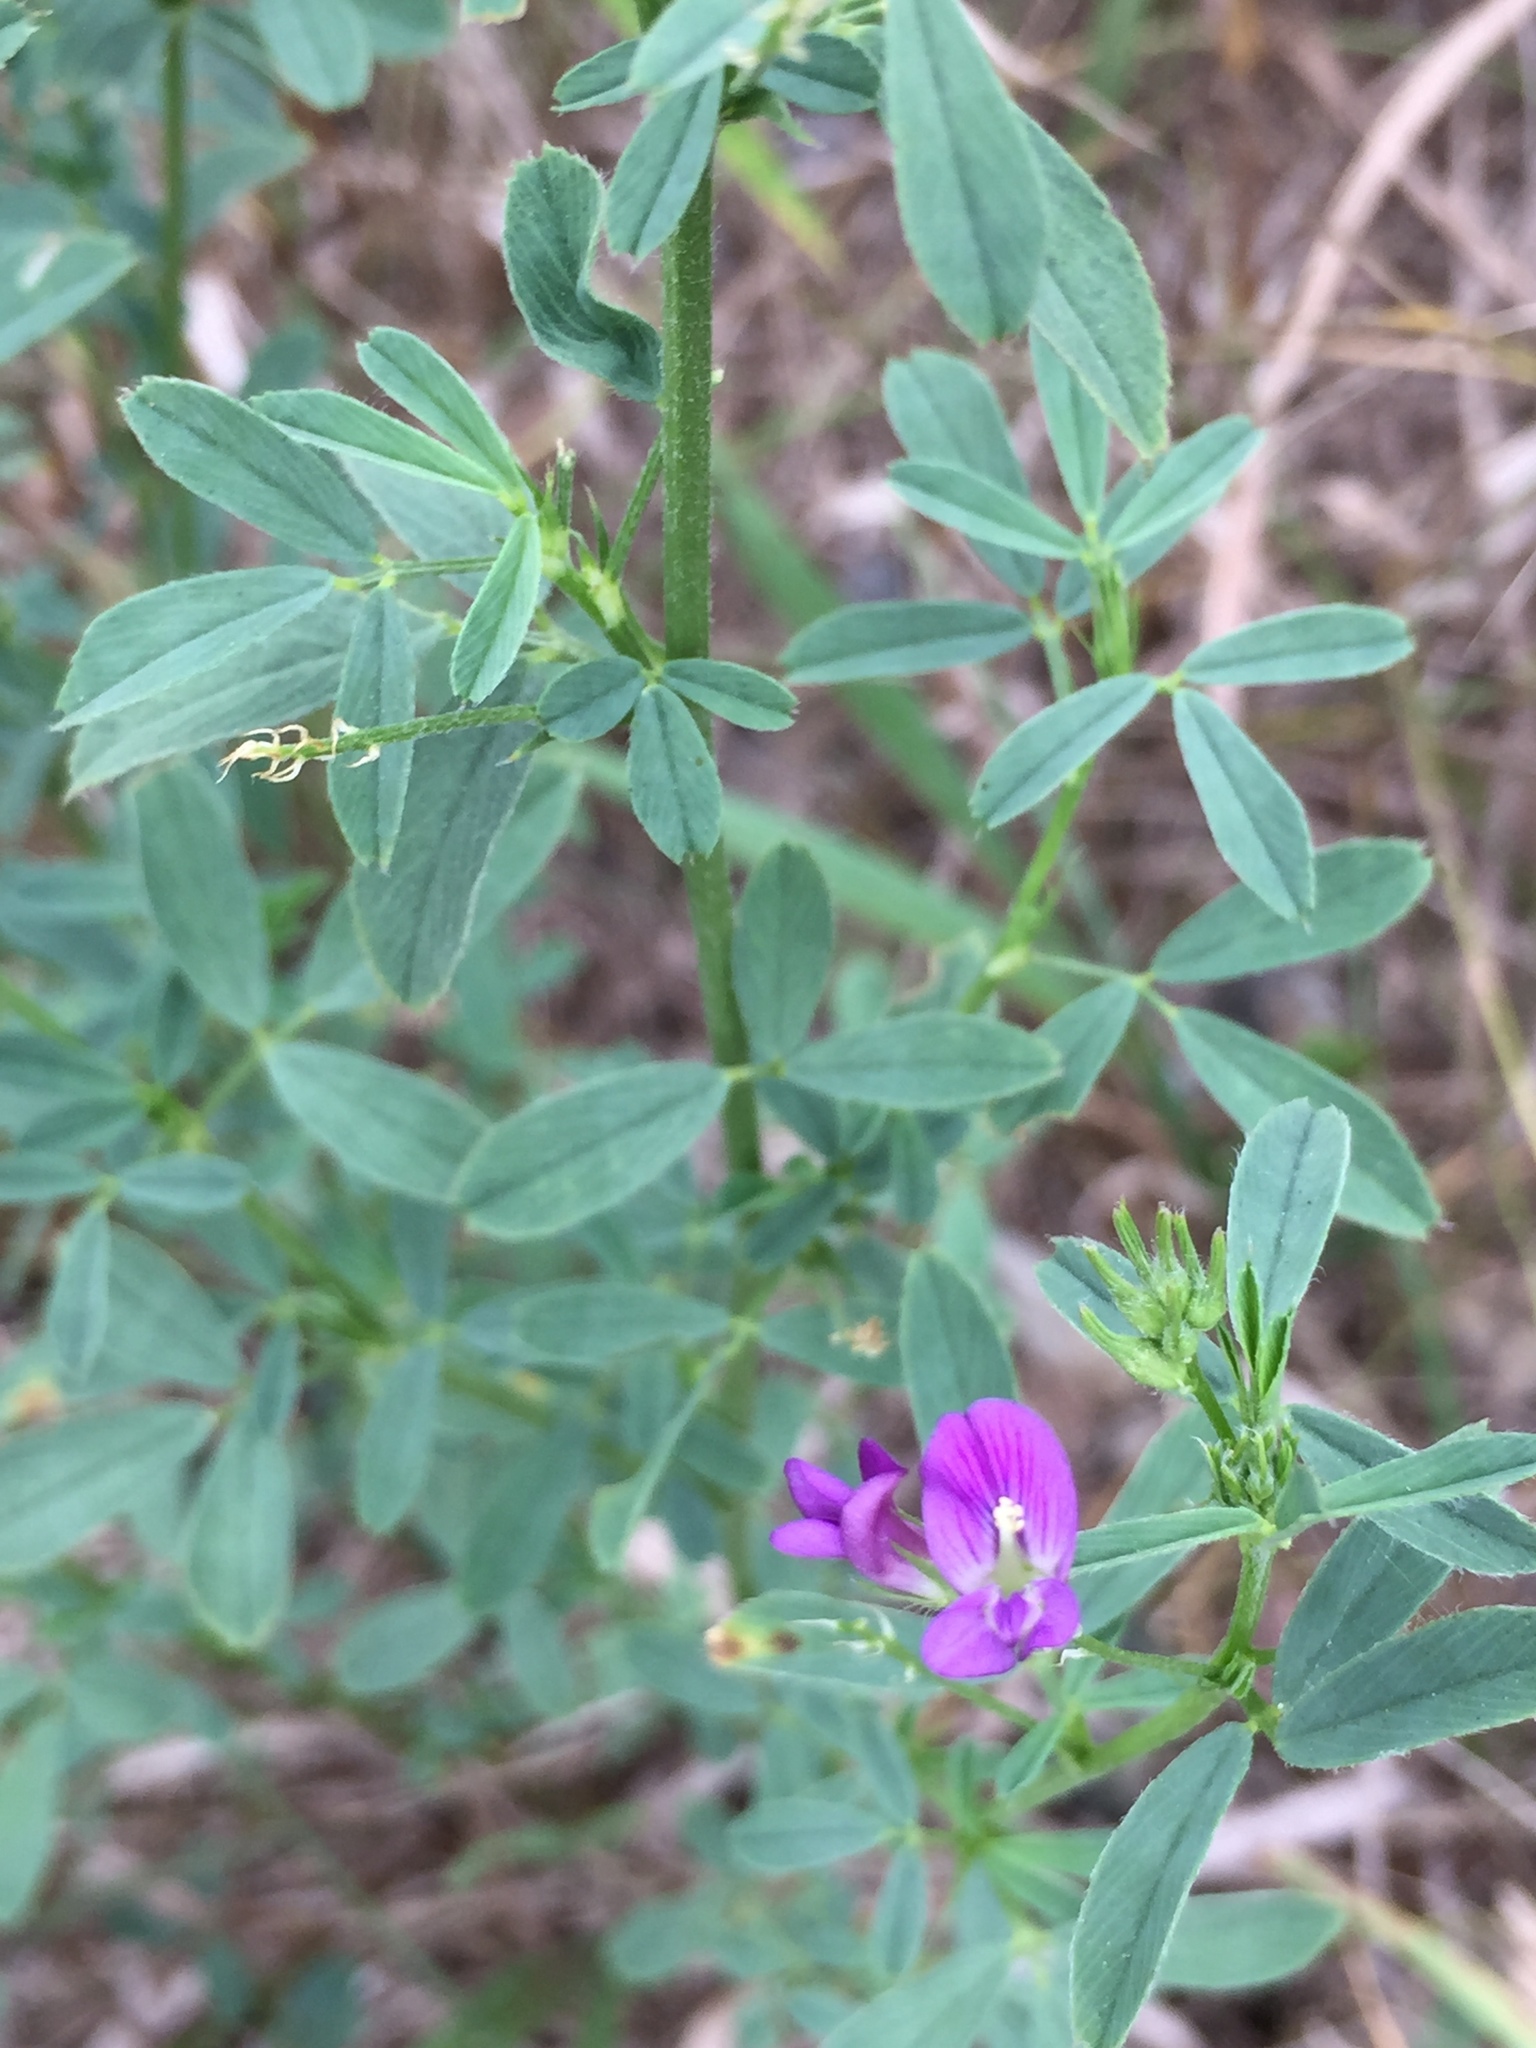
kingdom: Plantae
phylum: Tracheophyta
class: Magnoliopsida
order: Fabales
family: Fabaceae
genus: Medicago
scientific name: Medicago sativa
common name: Alfalfa
